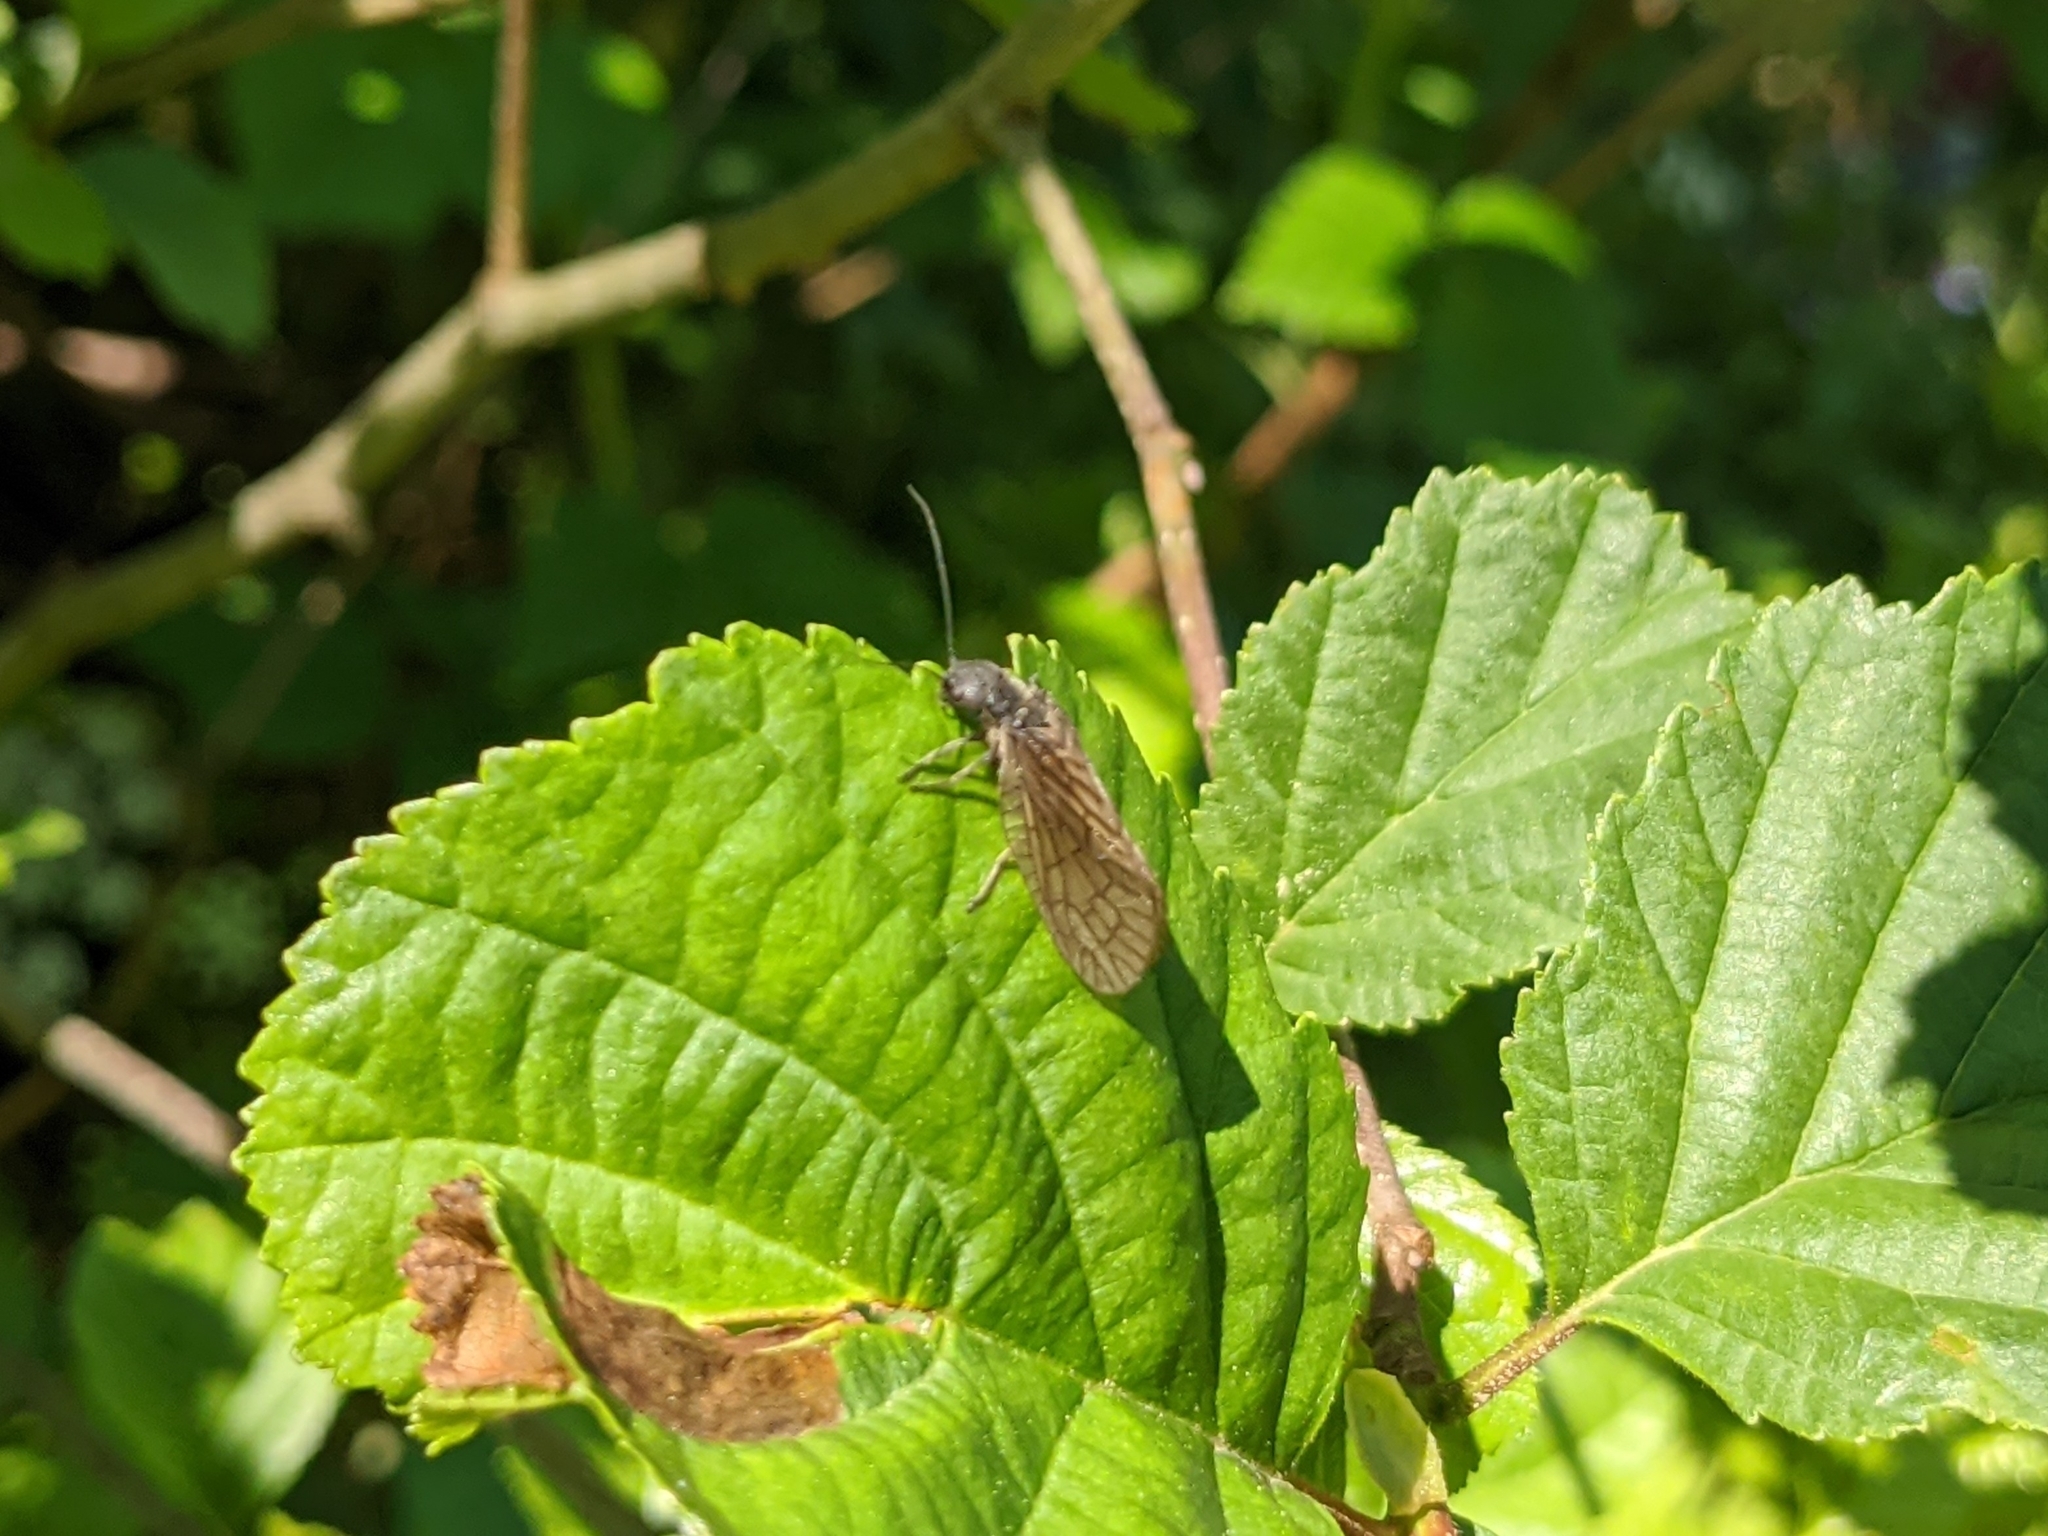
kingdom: Animalia
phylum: Arthropoda
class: Insecta
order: Megaloptera
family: Sialidae
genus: Sialis
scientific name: Sialis
